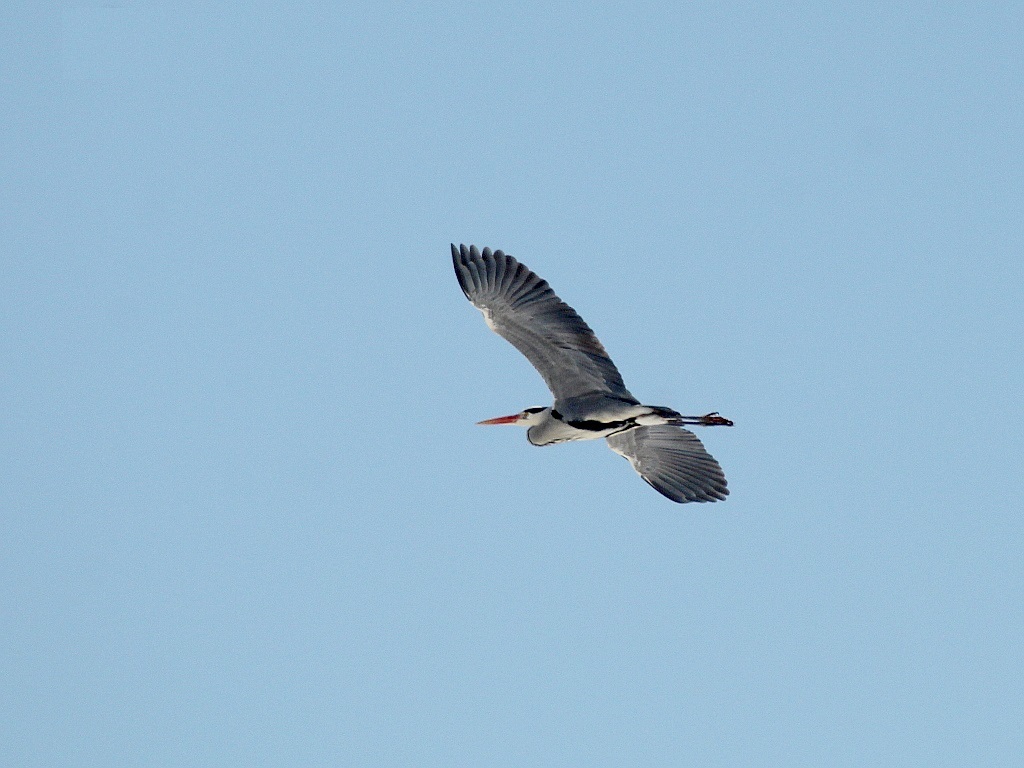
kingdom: Animalia
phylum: Chordata
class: Aves
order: Pelecaniformes
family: Ardeidae
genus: Ardea
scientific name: Ardea cinerea
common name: Grey heron
